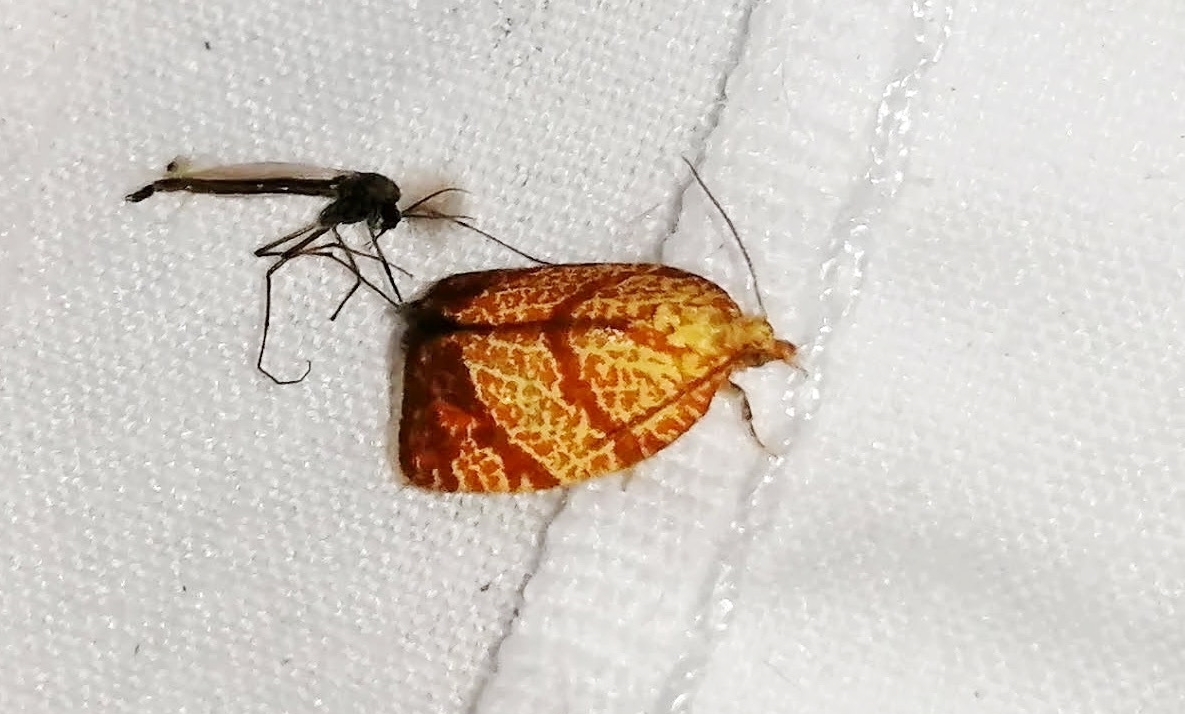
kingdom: Animalia
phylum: Arthropoda
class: Insecta
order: Lepidoptera
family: Tortricidae
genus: Argyrotaenia
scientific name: Argyrotaenia quadrifasciana
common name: Four-lined leafroller moth
